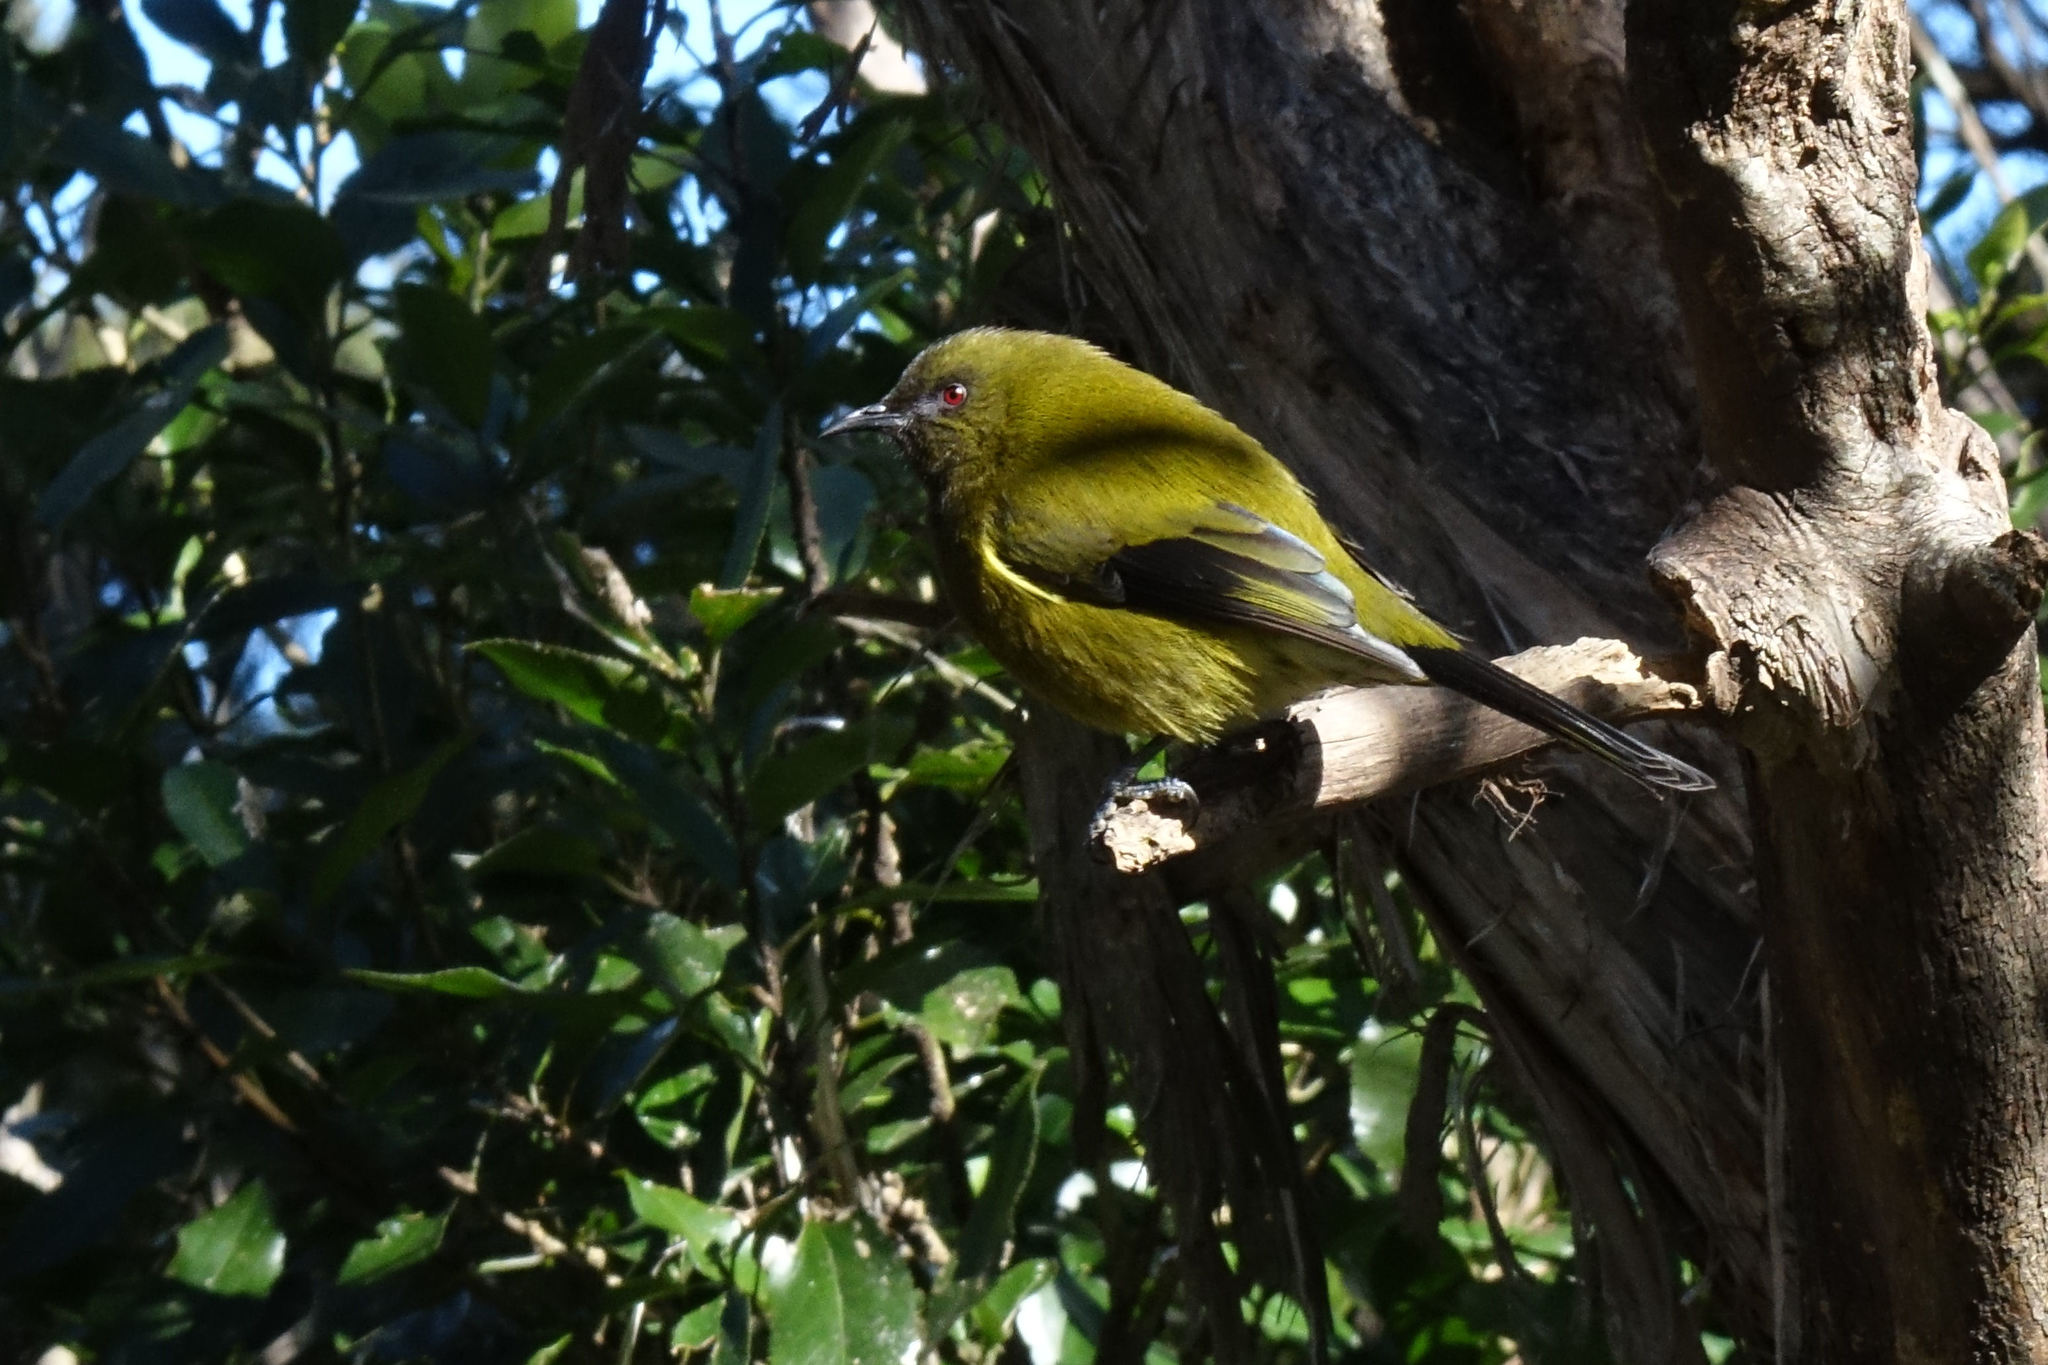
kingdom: Animalia
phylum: Chordata
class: Aves
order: Passeriformes
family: Meliphagidae
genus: Anthornis
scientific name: Anthornis melanura
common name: New zealand bellbird
